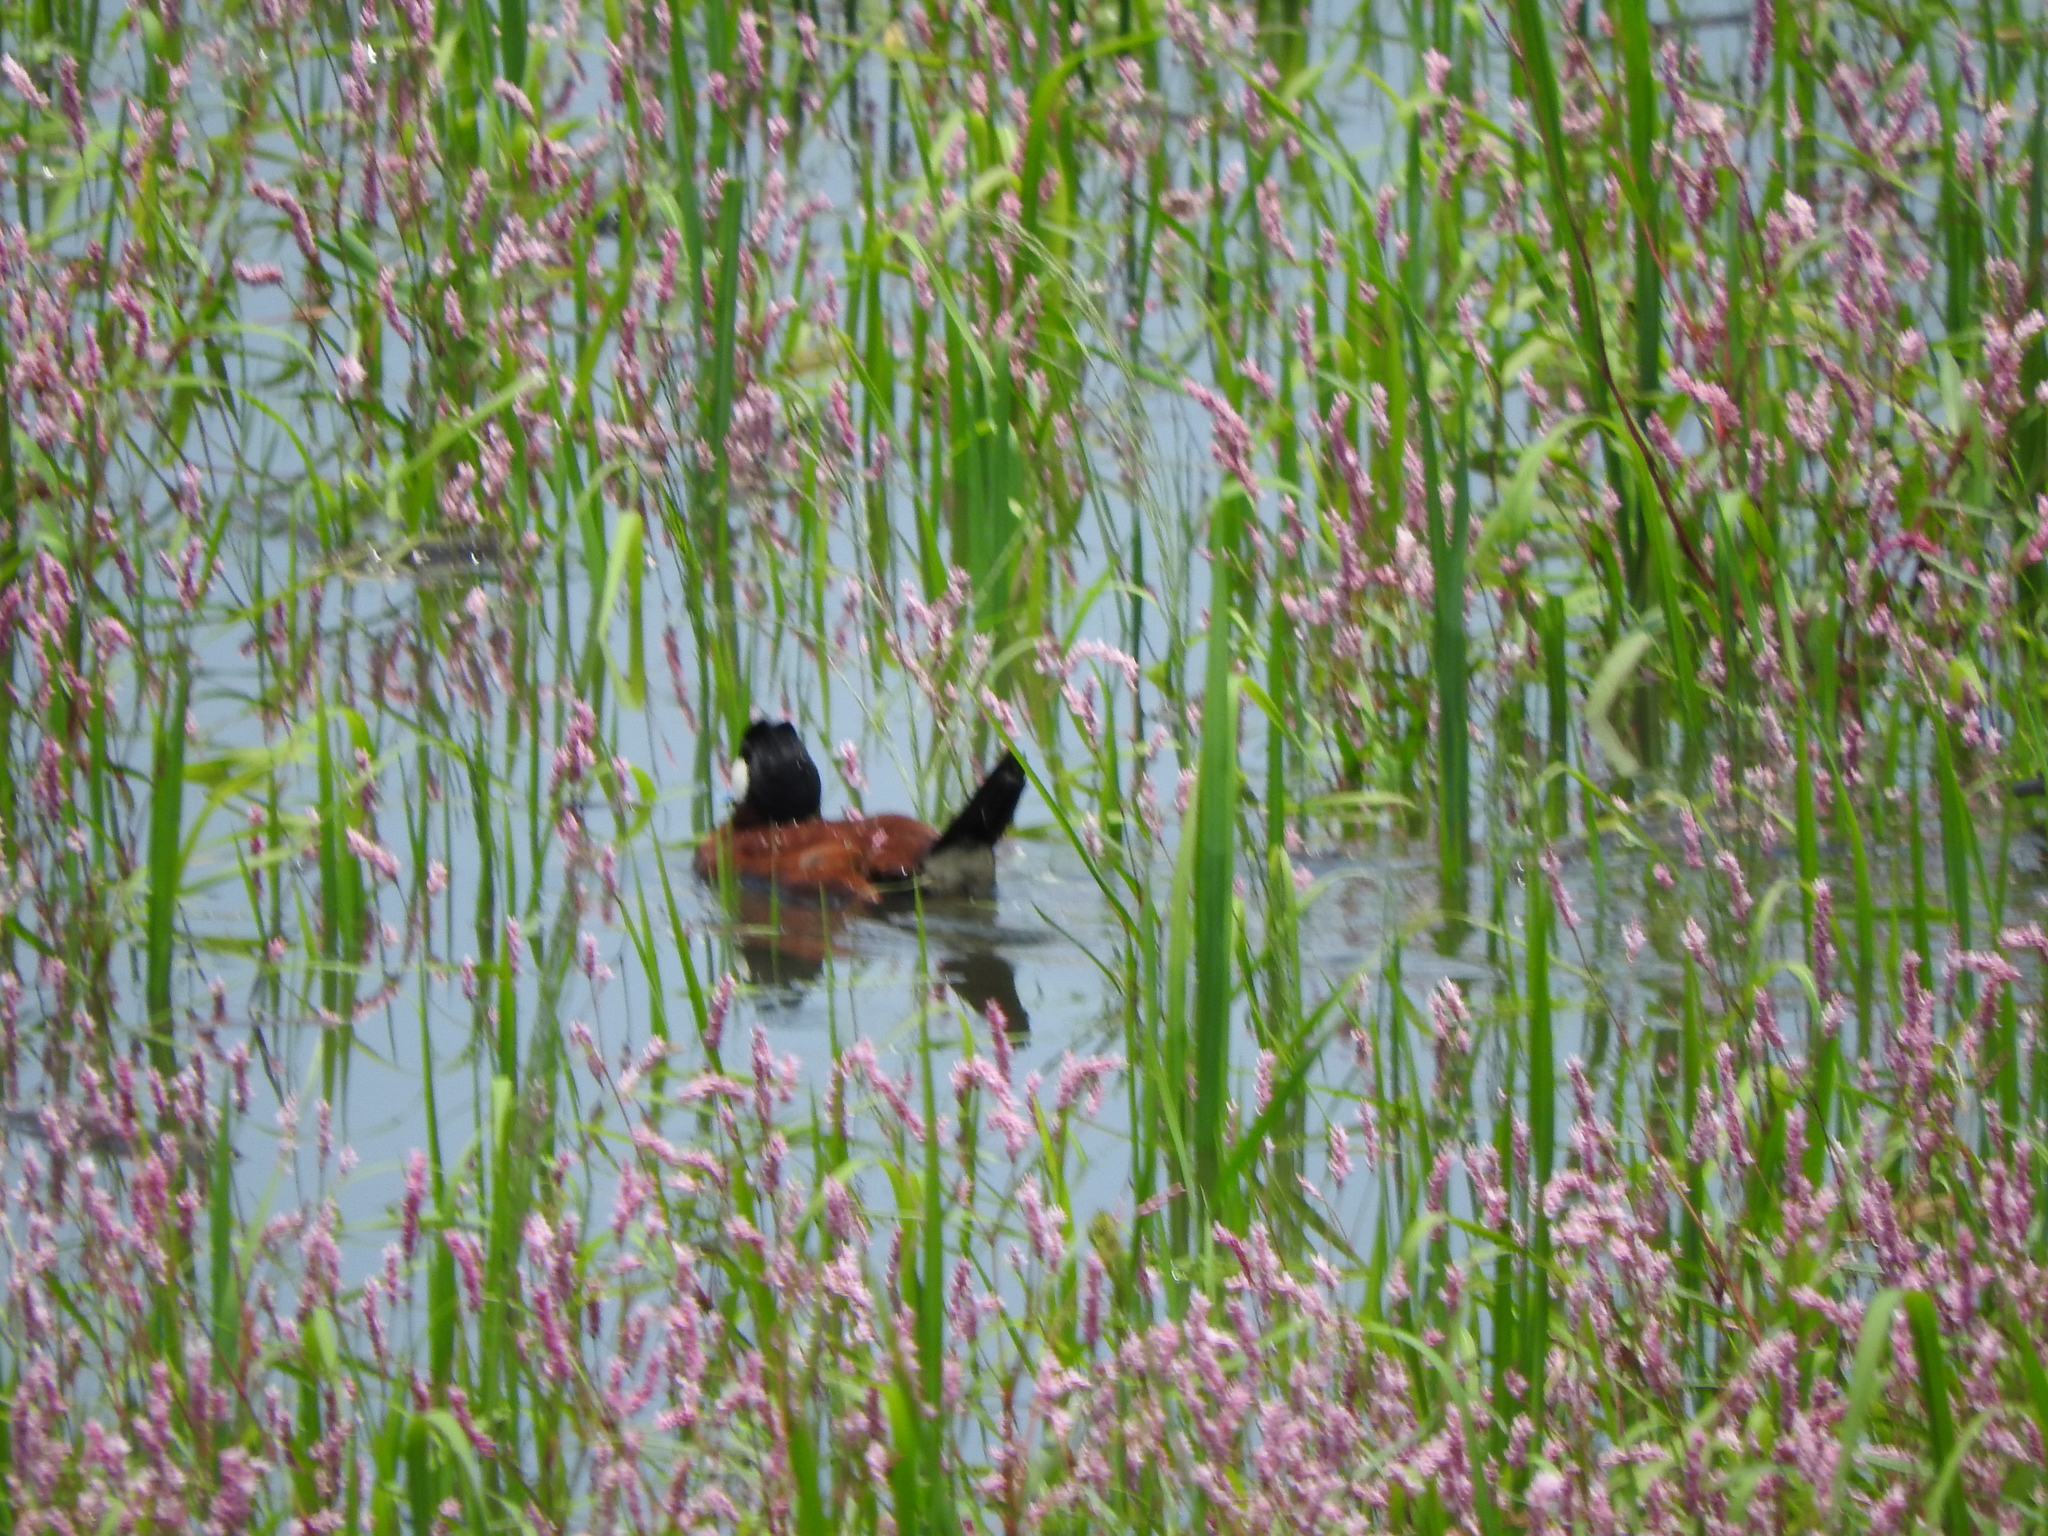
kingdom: Animalia
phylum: Chordata
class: Aves
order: Anseriformes
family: Anatidae
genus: Oxyura
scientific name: Oxyura jamaicensis
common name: Ruddy duck
